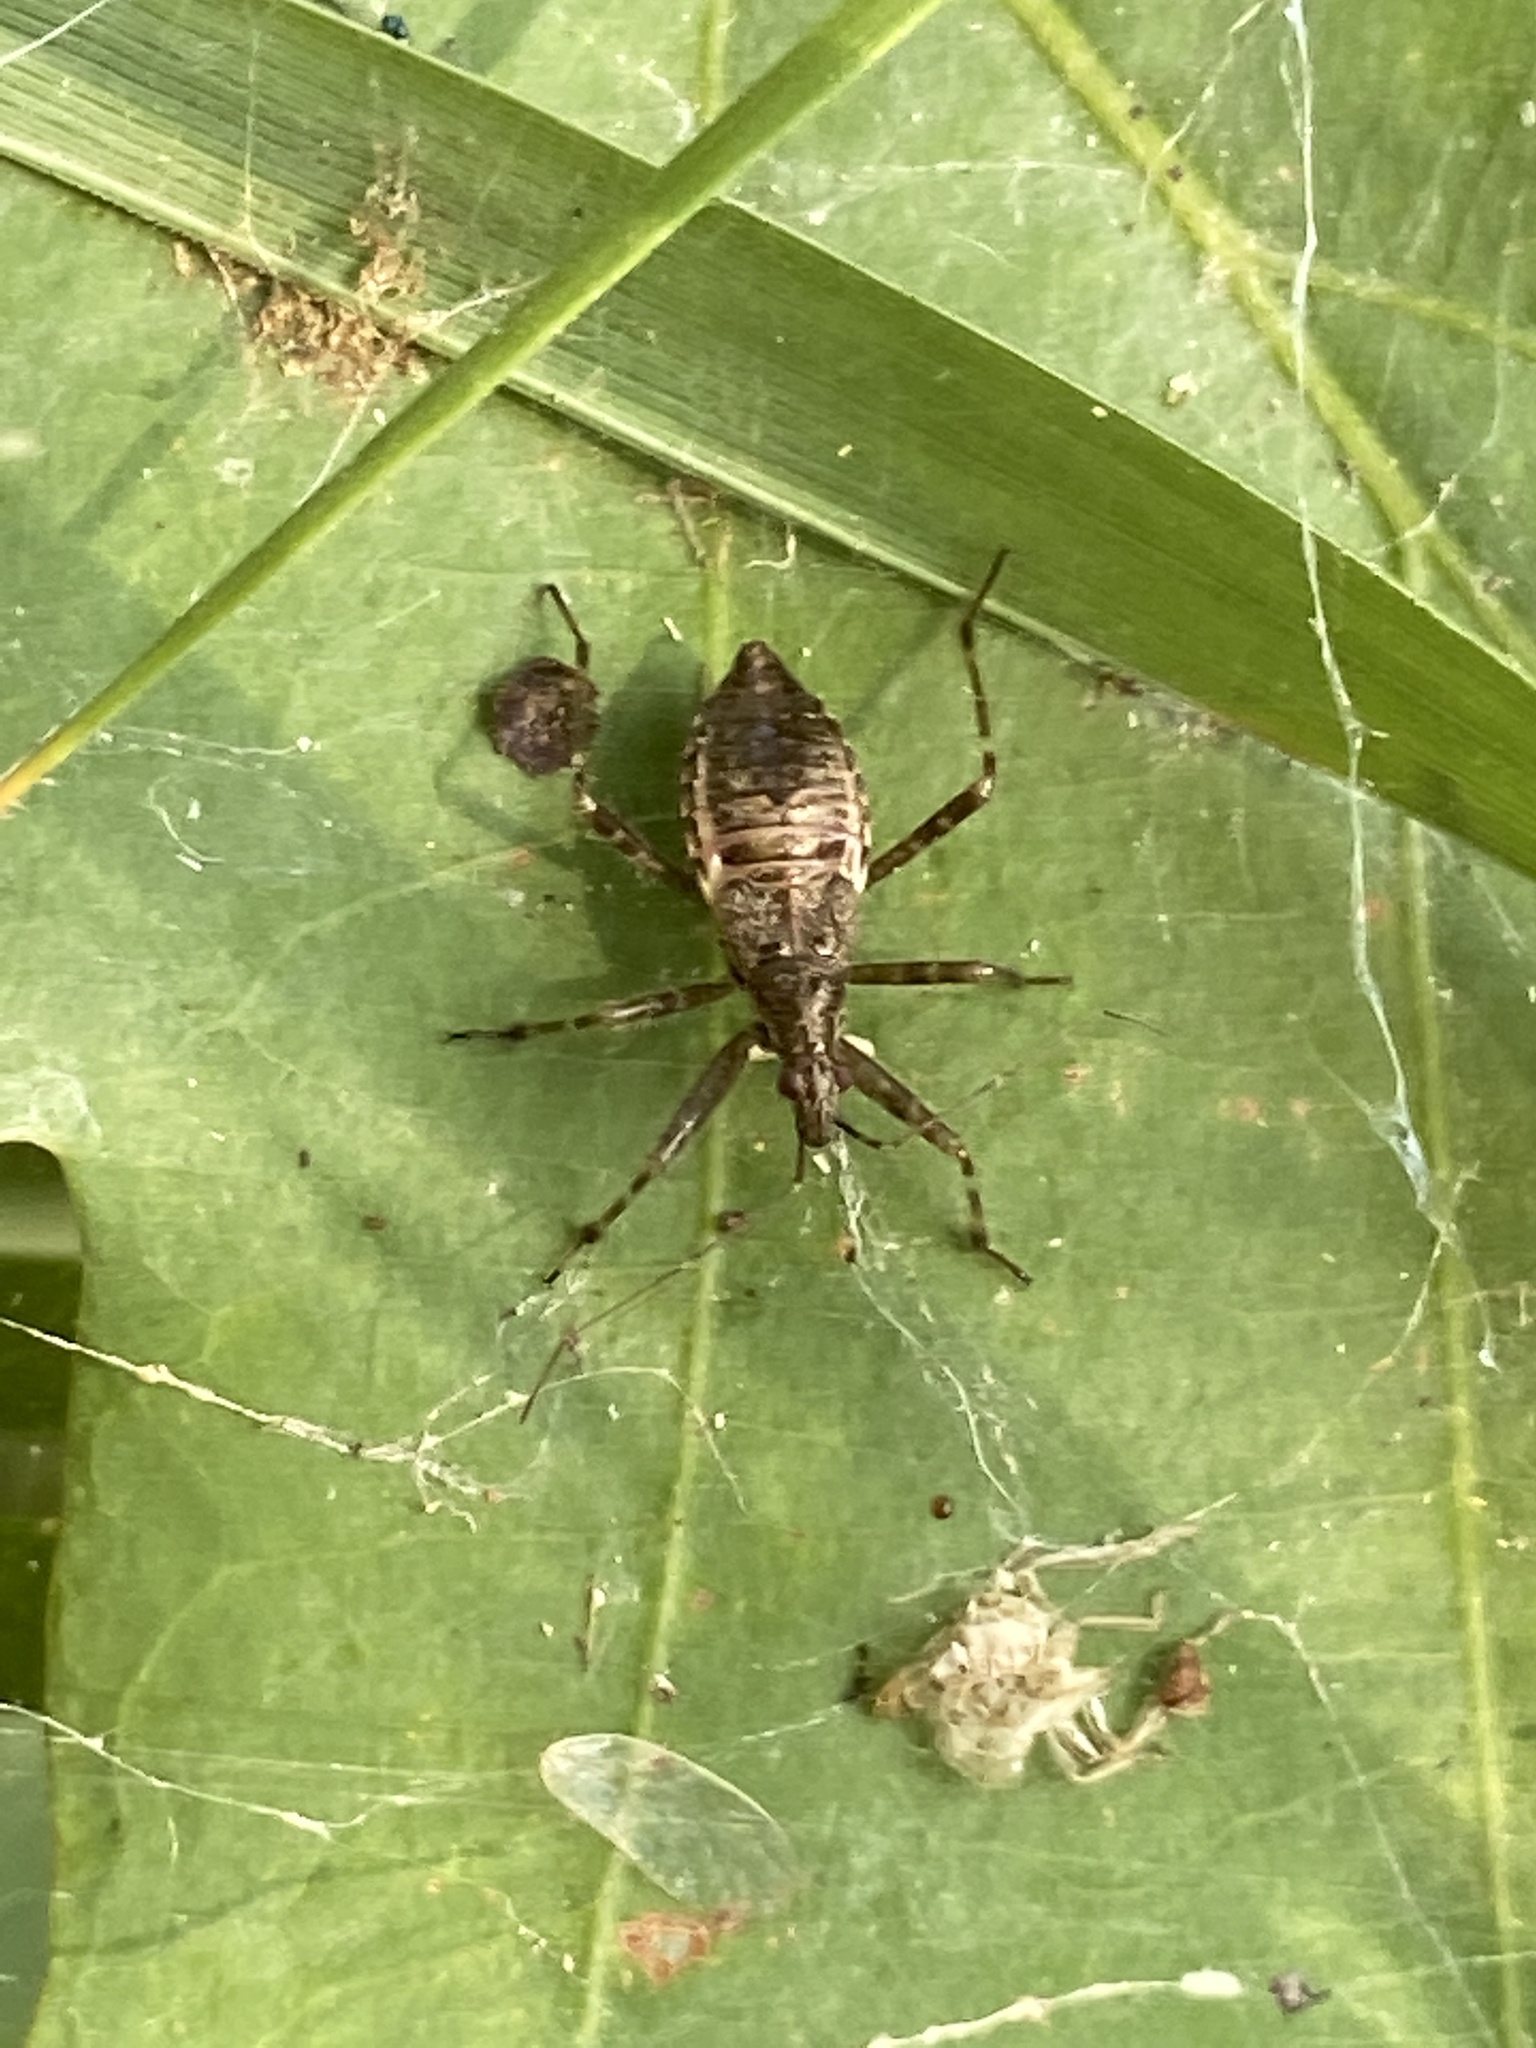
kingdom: Animalia
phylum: Arthropoda
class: Insecta
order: Hemiptera
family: Nabidae
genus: Himacerus
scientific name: Himacerus apterus
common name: Tree damsel bug
